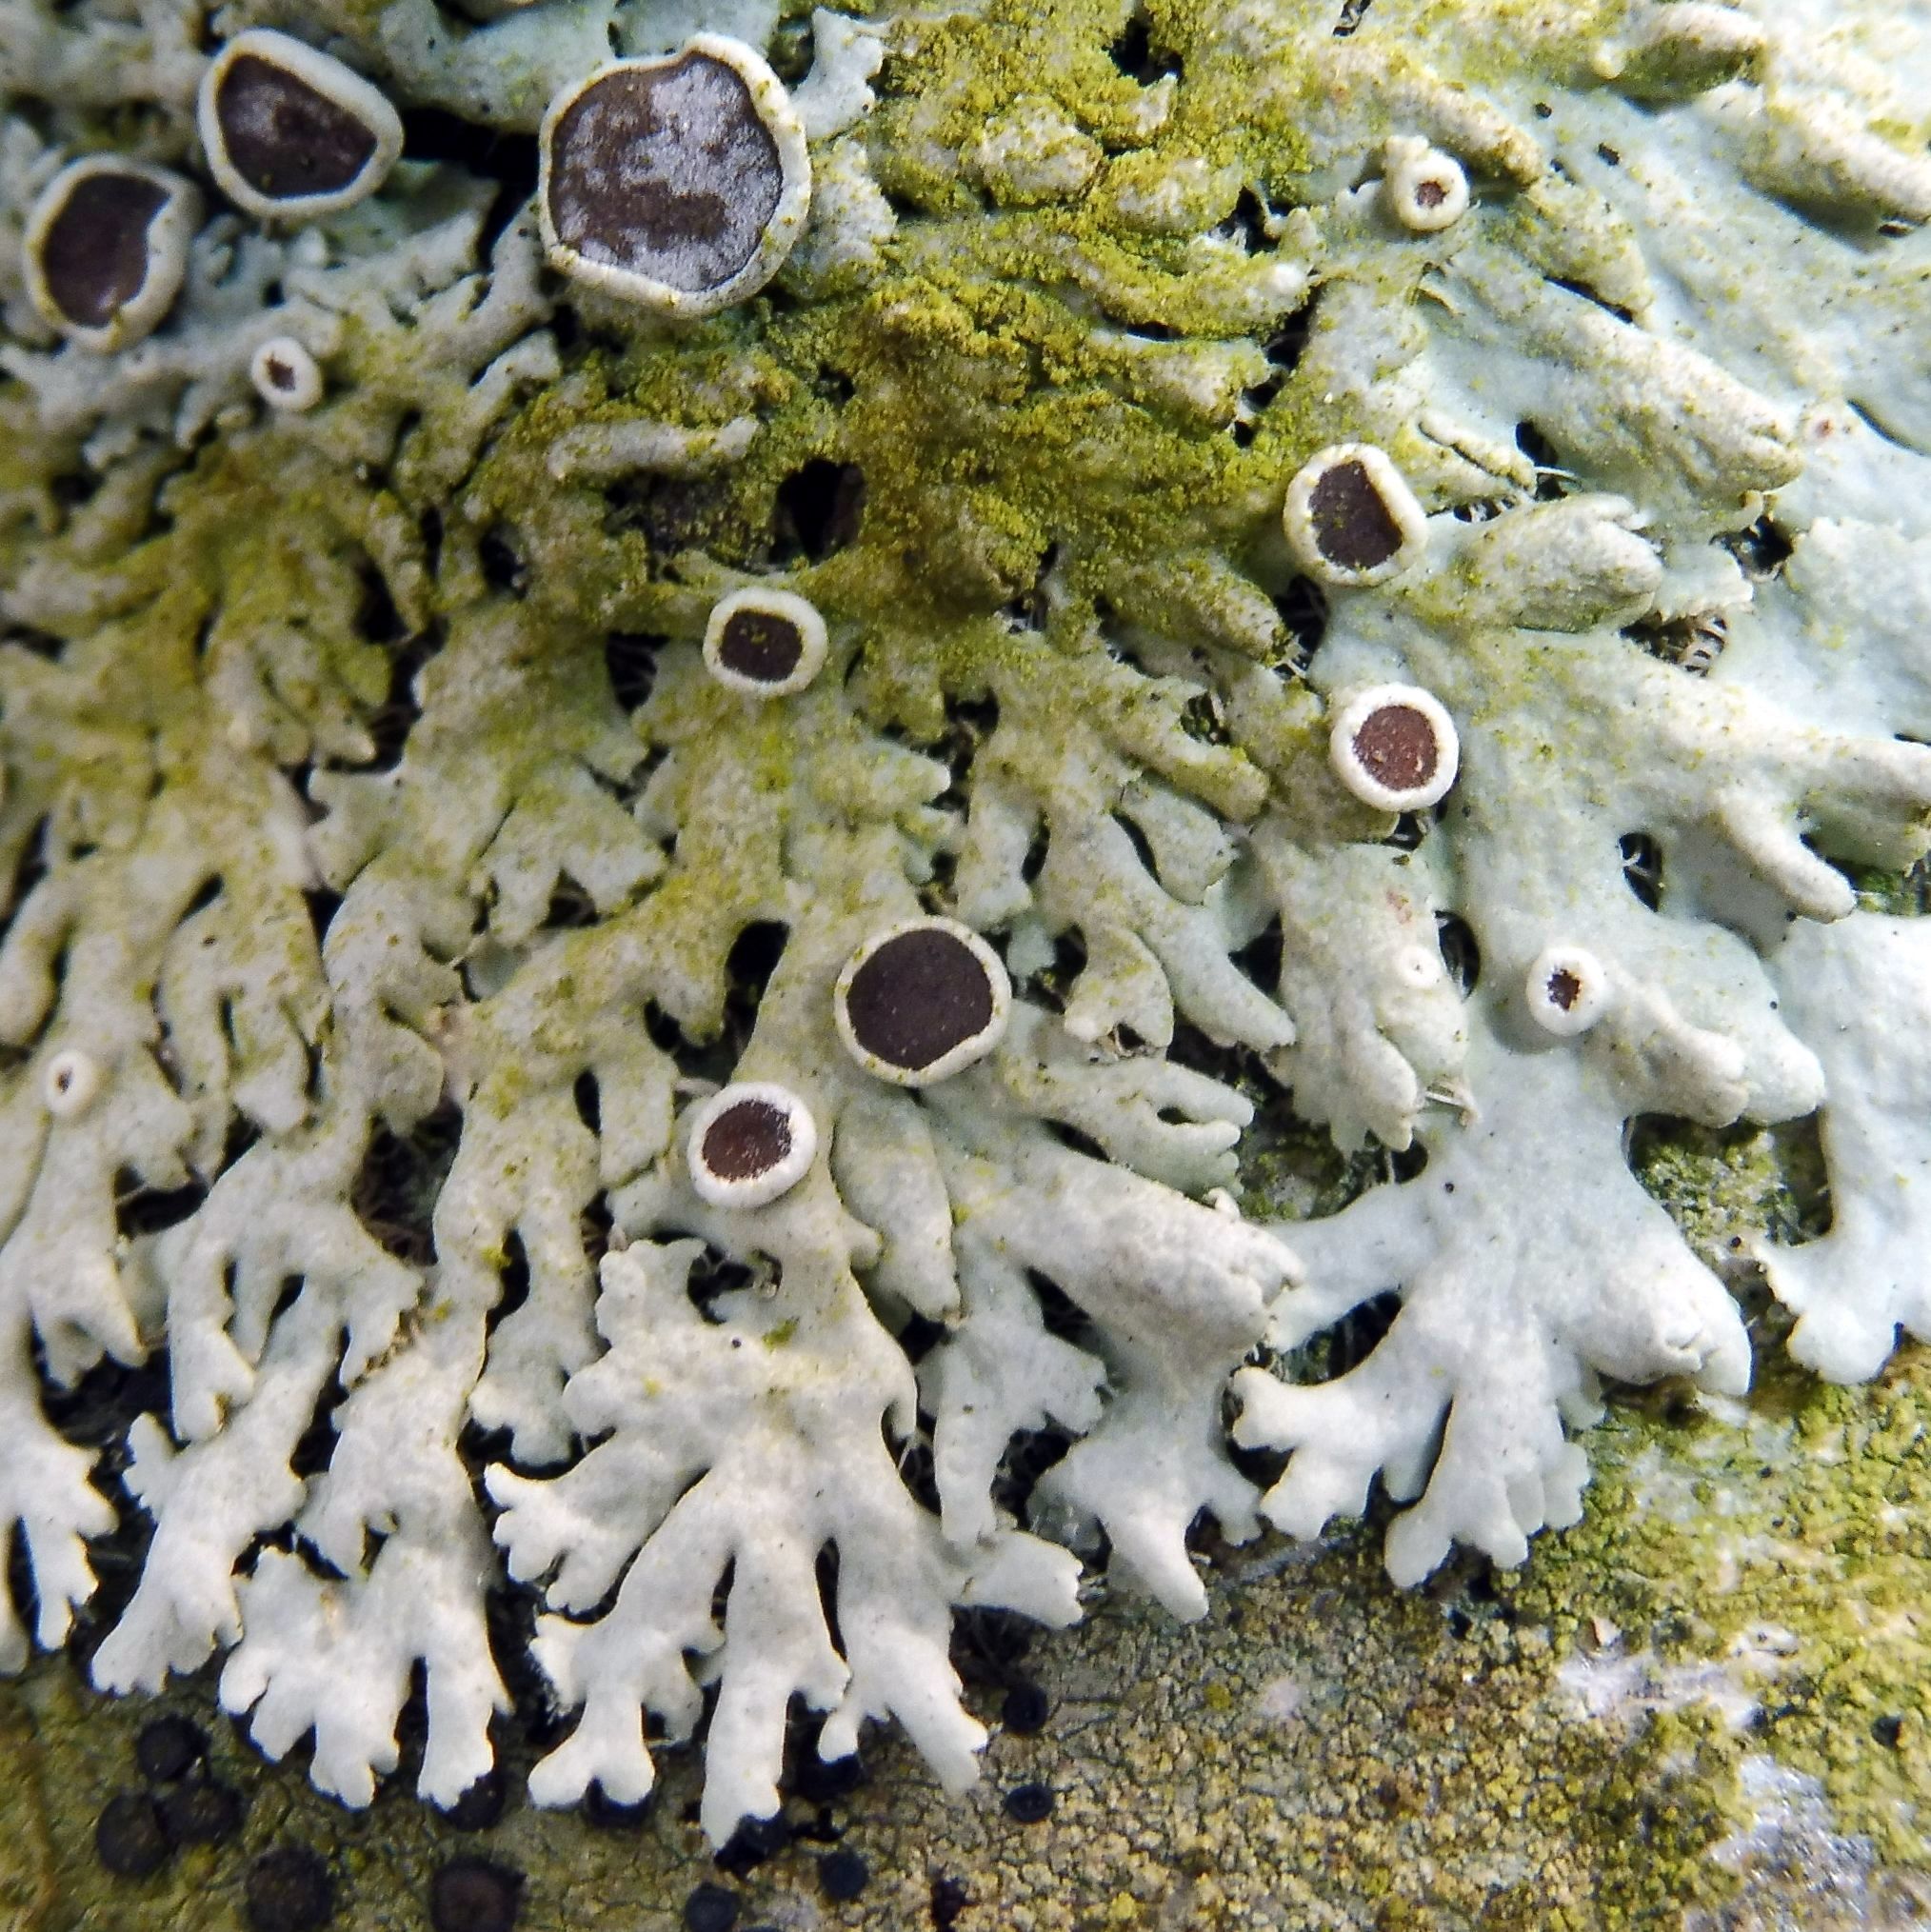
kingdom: Fungi
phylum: Ascomycota
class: Lecanoromycetes
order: Caliciales
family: Physciaceae
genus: Physcia
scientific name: Physcia stellaris
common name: Star rosette lichen
